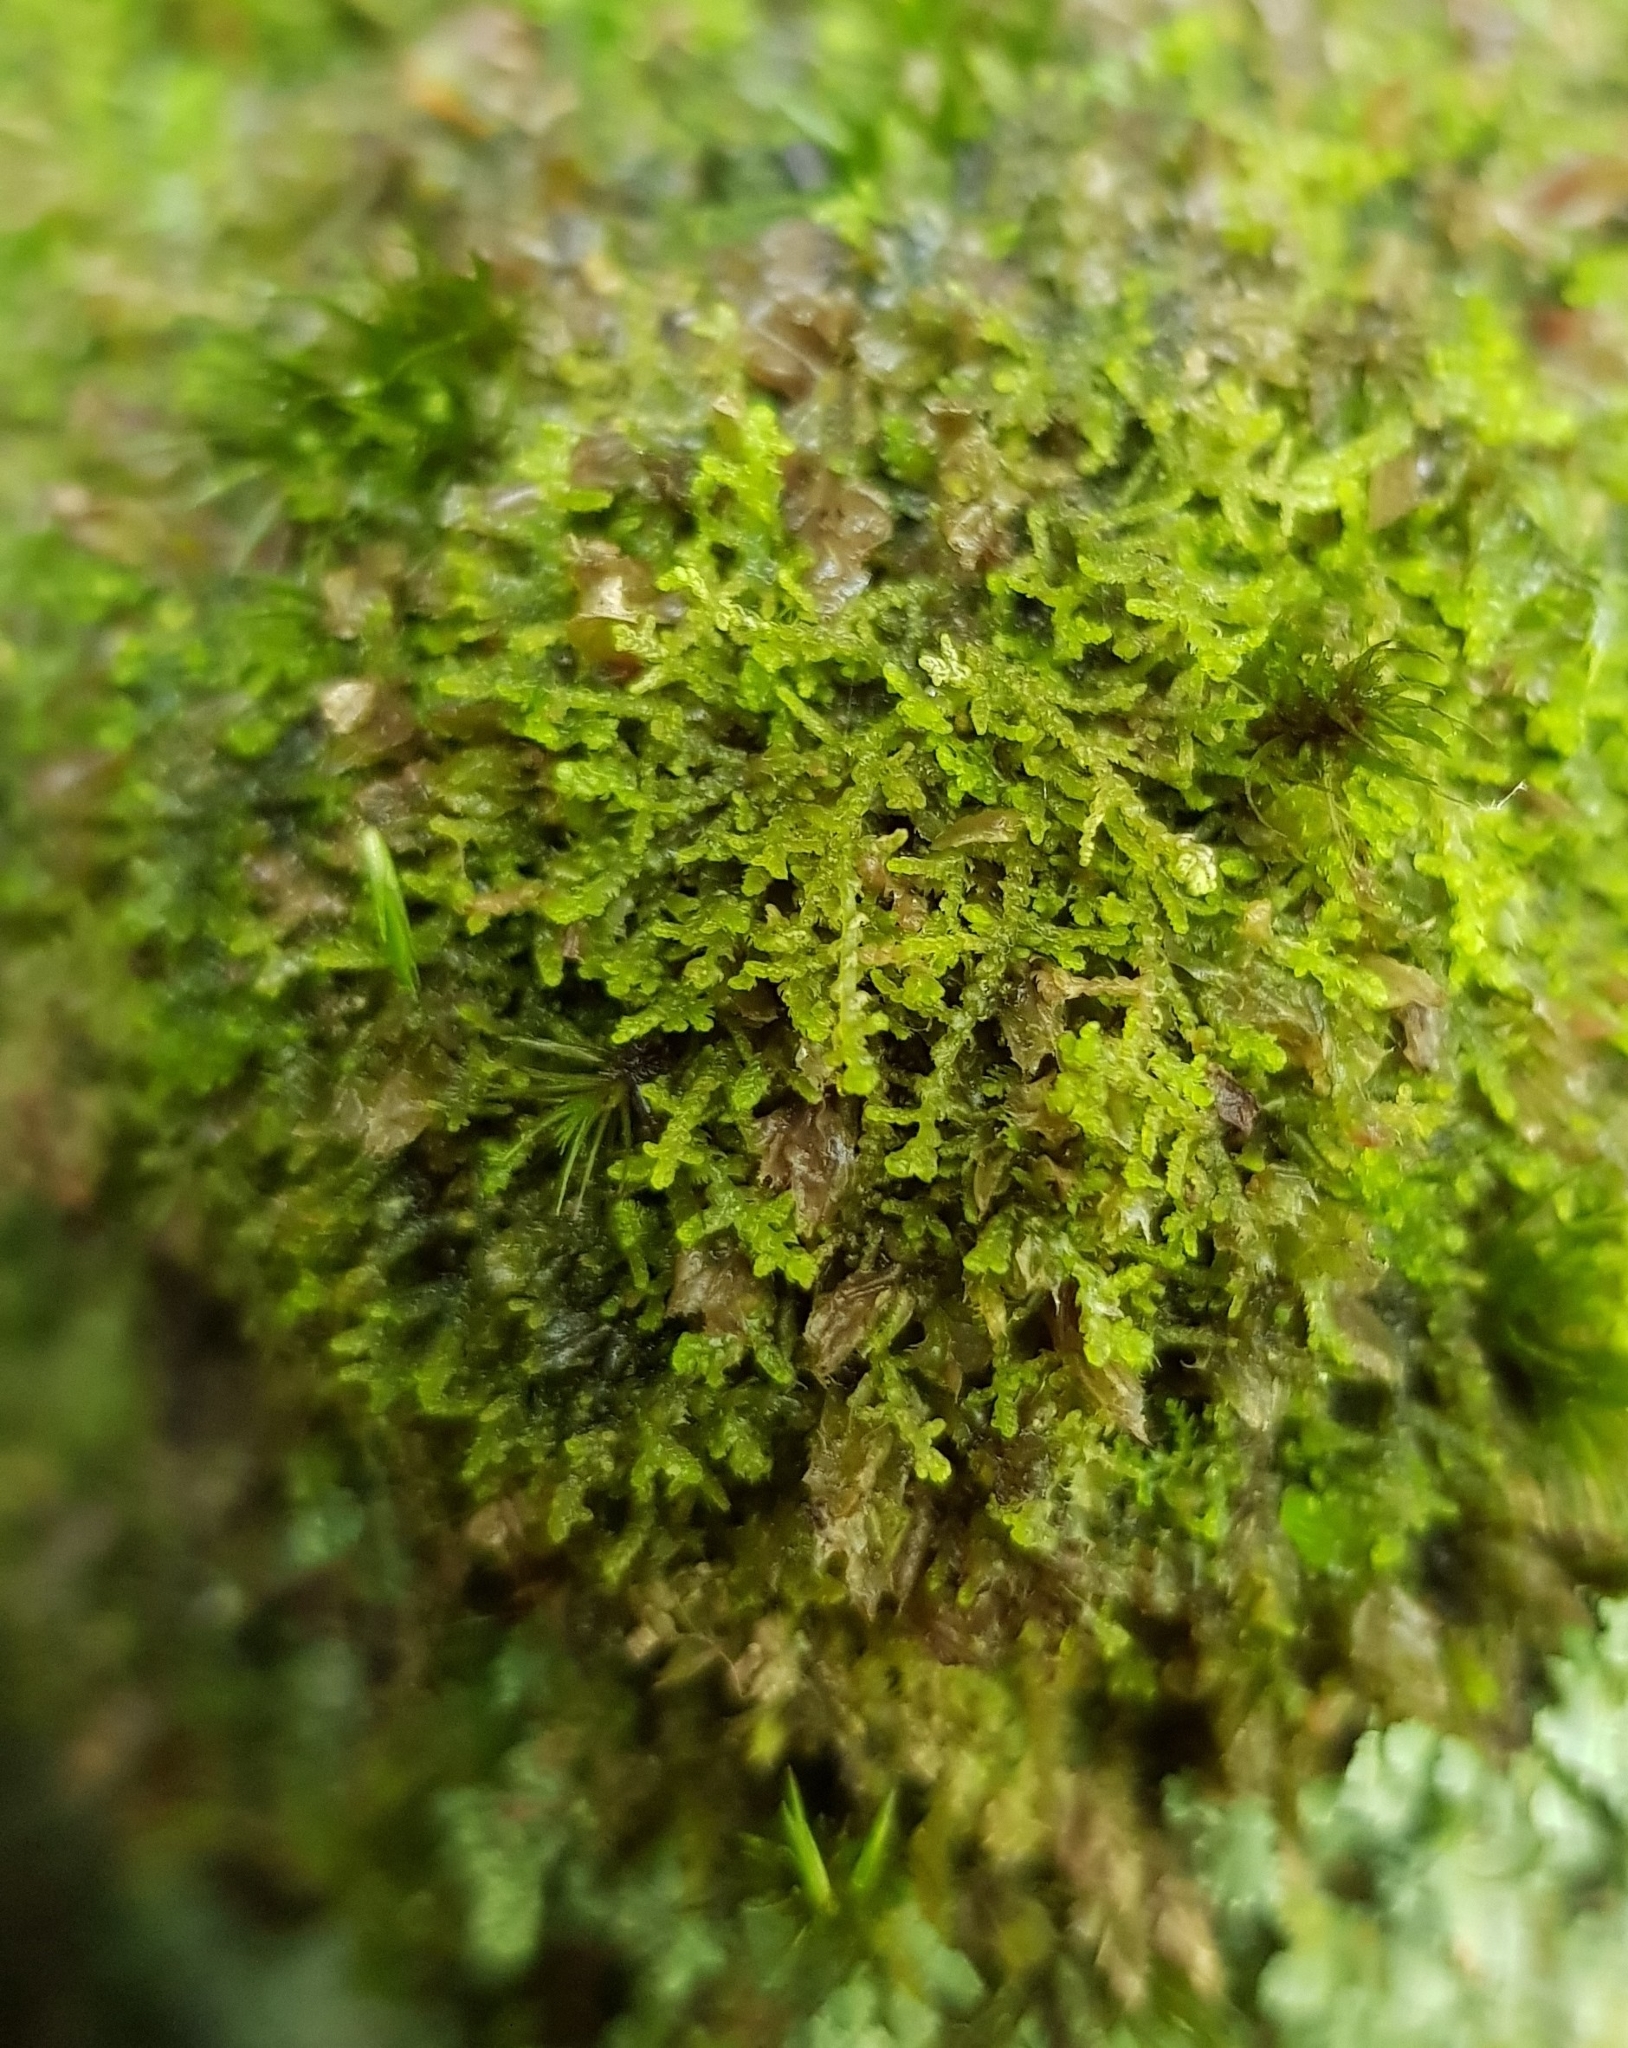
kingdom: Plantae
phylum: Marchantiophyta
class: Jungermanniopsida
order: Jungermanniales
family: Lepidoziaceae
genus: Lepidozia
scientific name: Lepidozia reptans
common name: Creeping fingerwort
